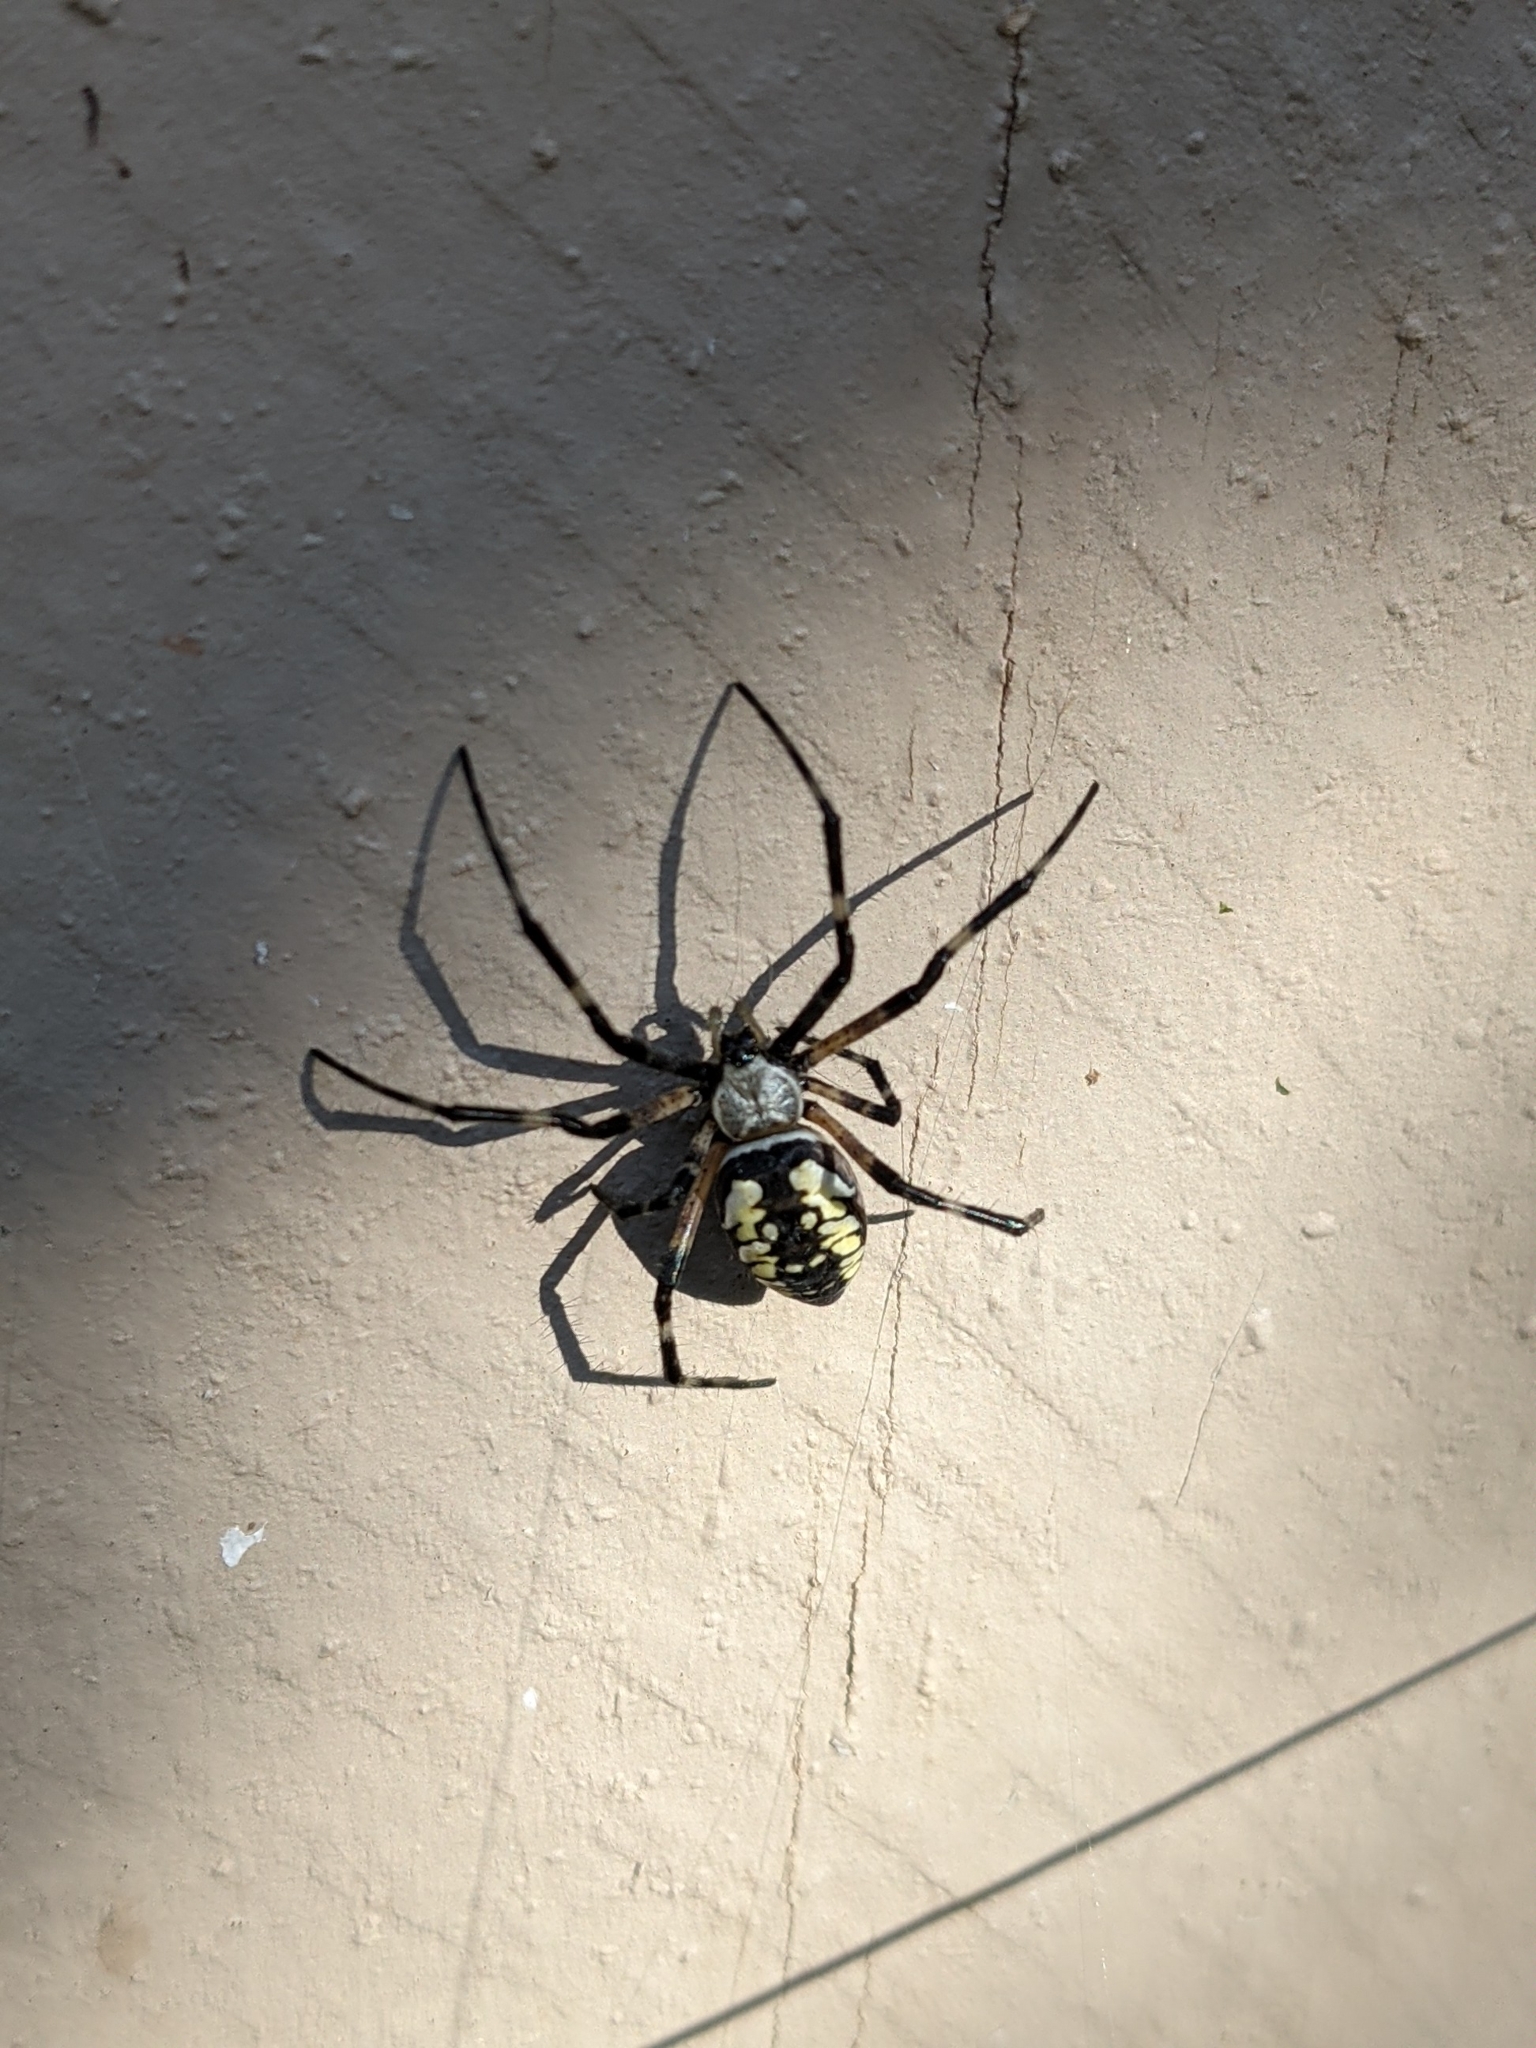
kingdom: Animalia
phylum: Arthropoda
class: Arachnida
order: Araneae
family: Araneidae
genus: Argiope
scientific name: Argiope aurantia
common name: Orb weavers
